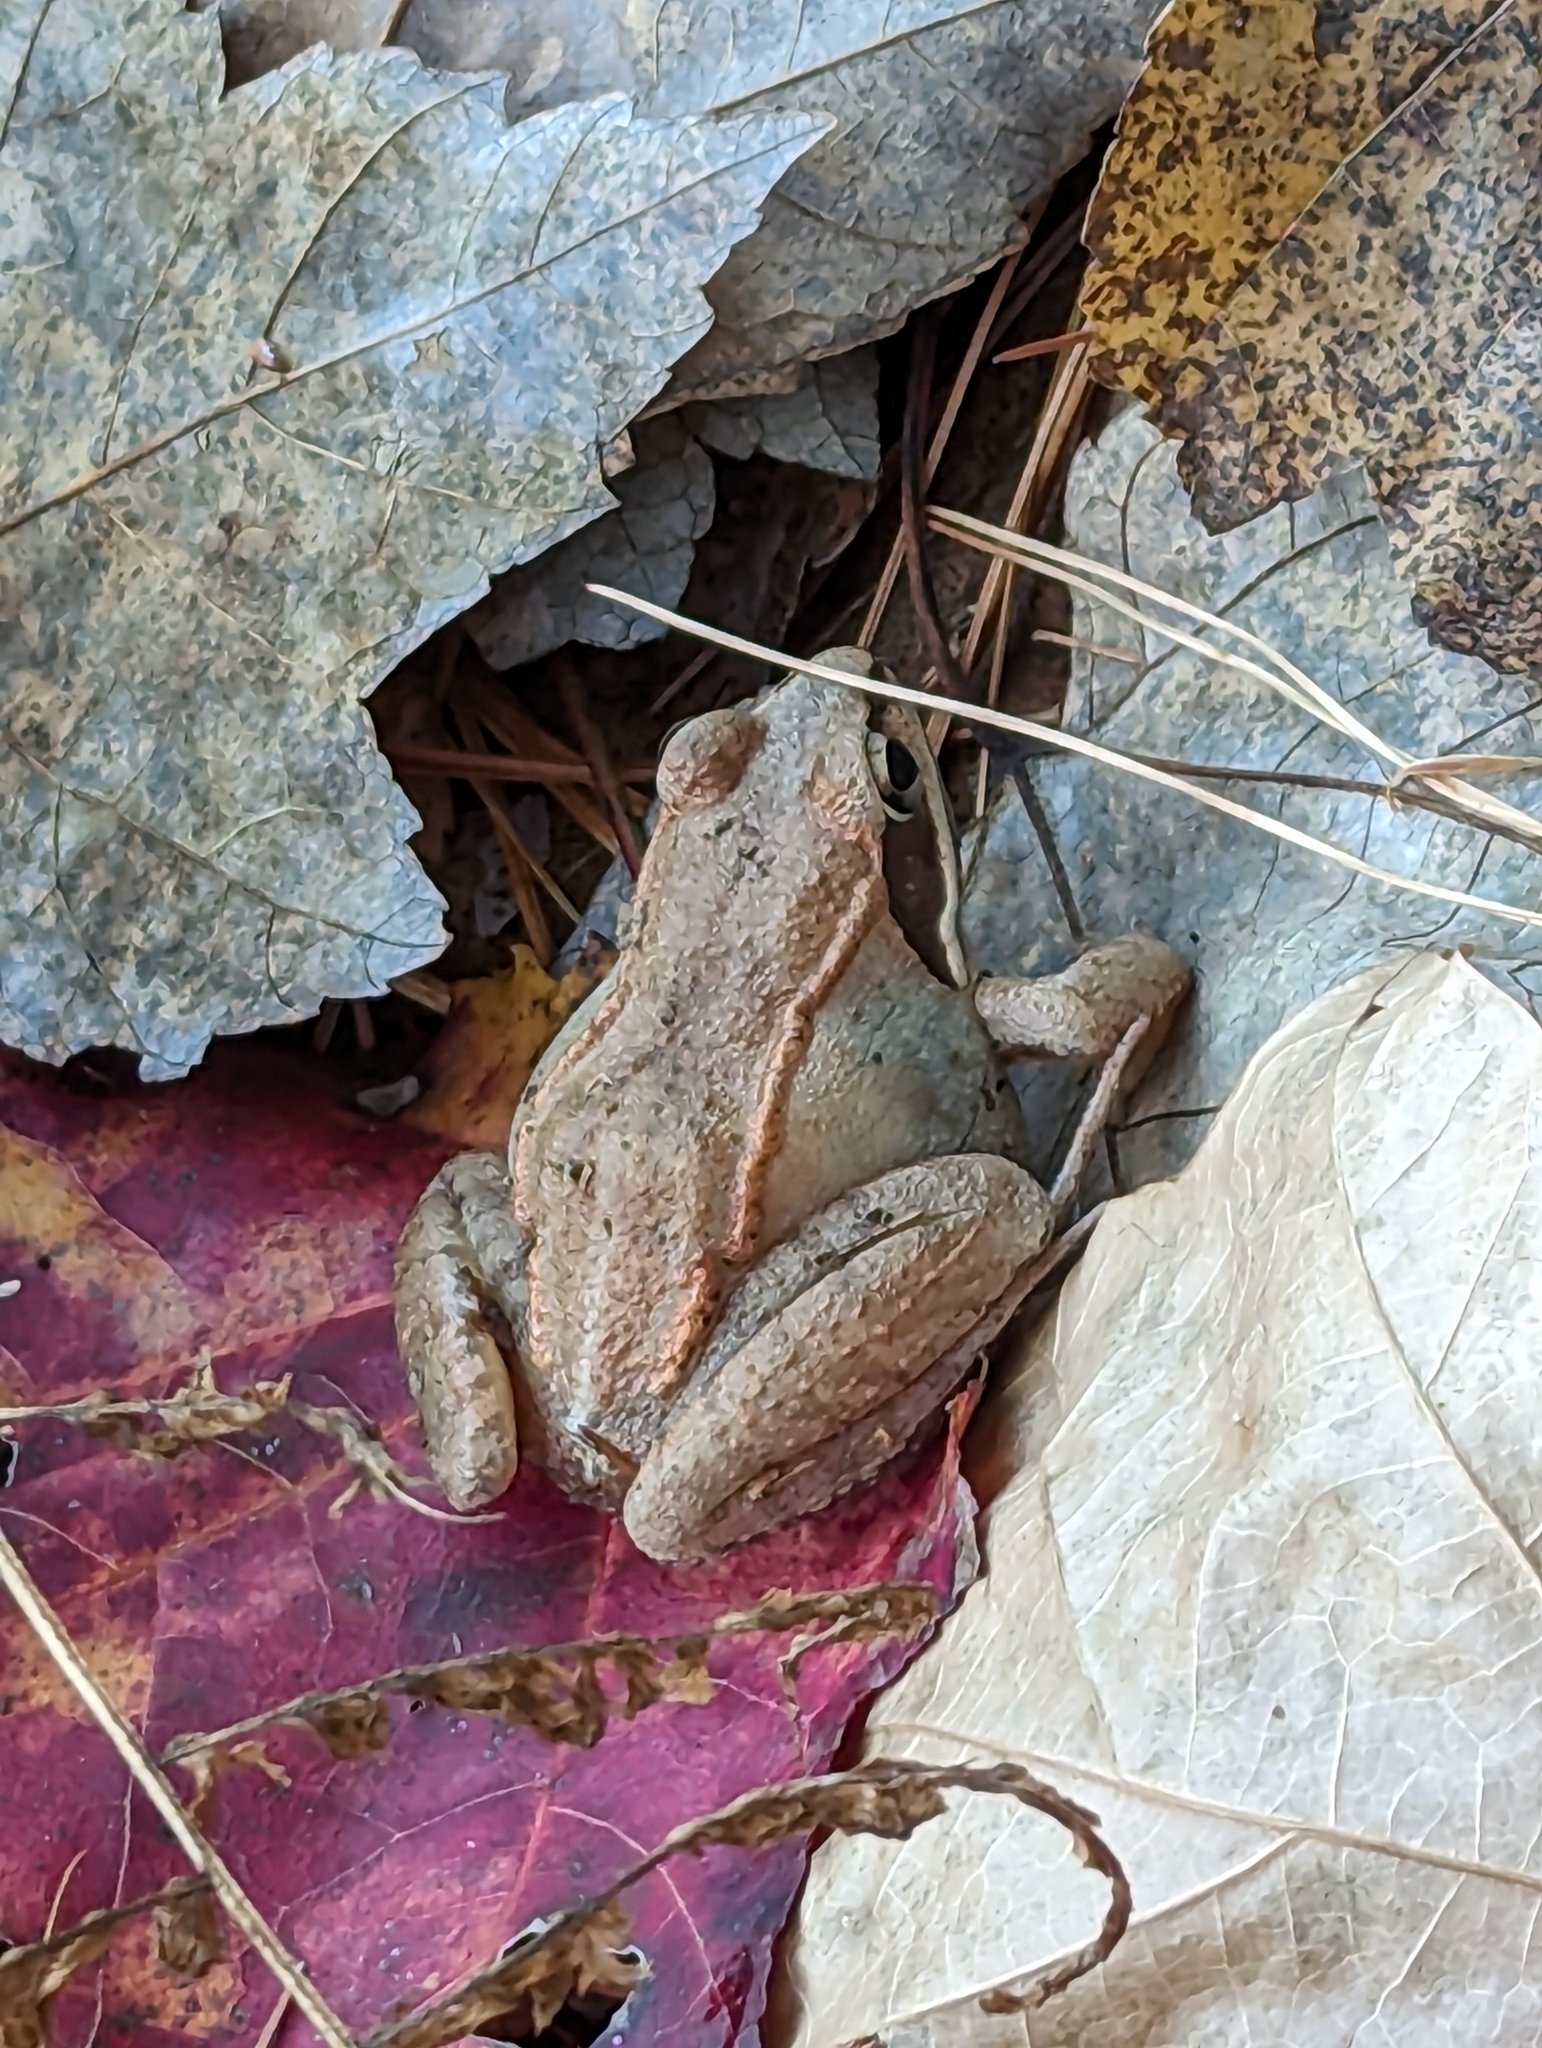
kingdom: Animalia
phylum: Chordata
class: Amphibia
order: Anura
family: Ranidae
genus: Lithobates
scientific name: Lithobates sylvaticus
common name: Wood frog
